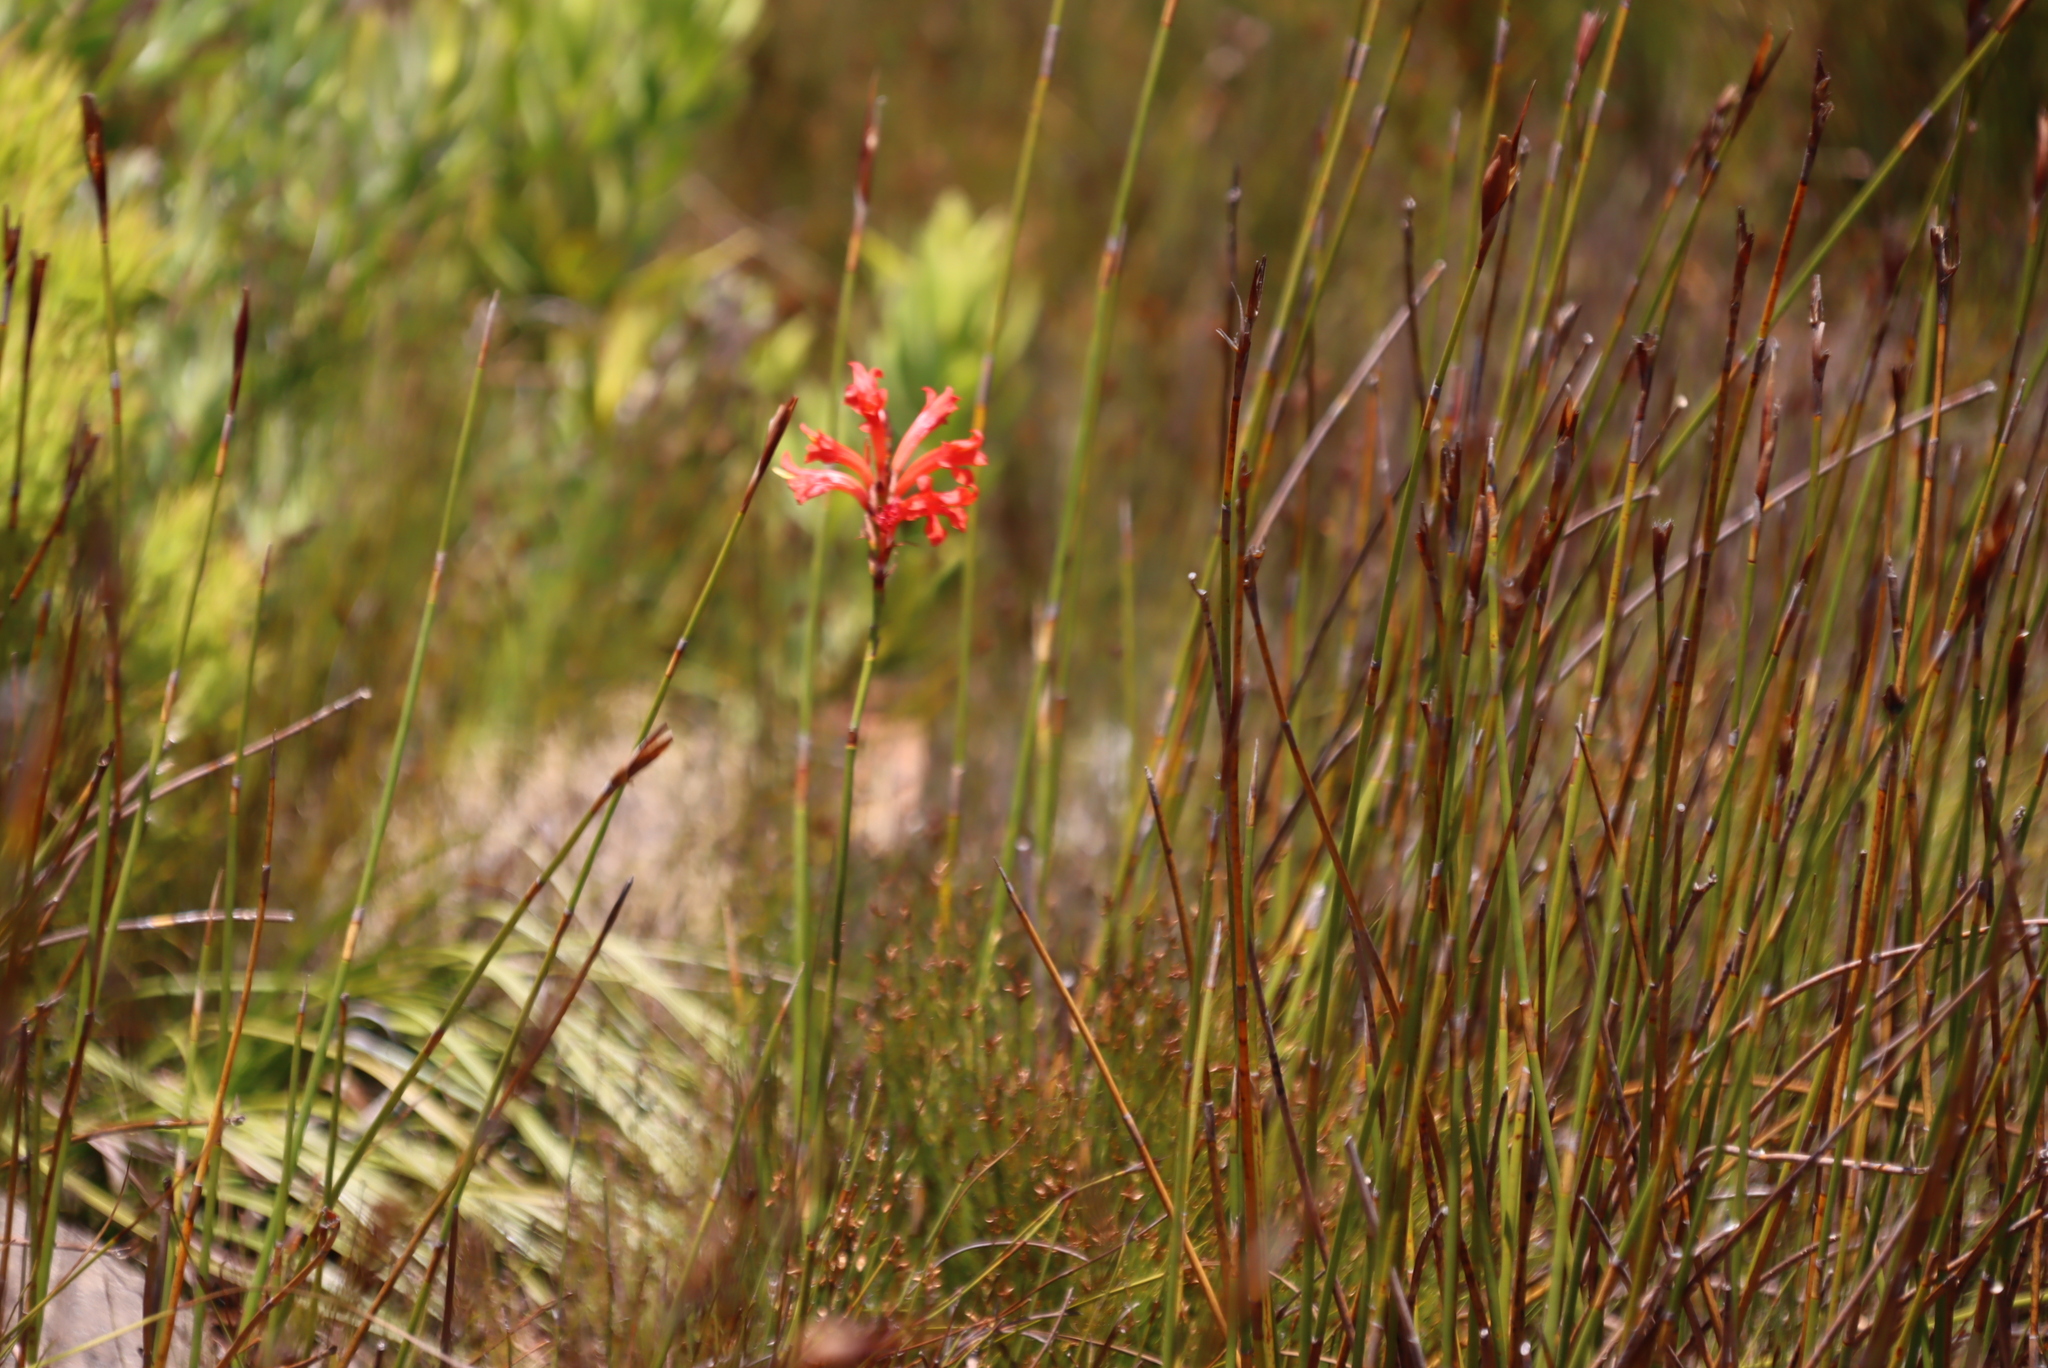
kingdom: Plantae
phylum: Tracheophyta
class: Liliopsida
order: Asparagales
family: Iridaceae
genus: Tritoniopsis
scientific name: Tritoniopsis triticea
